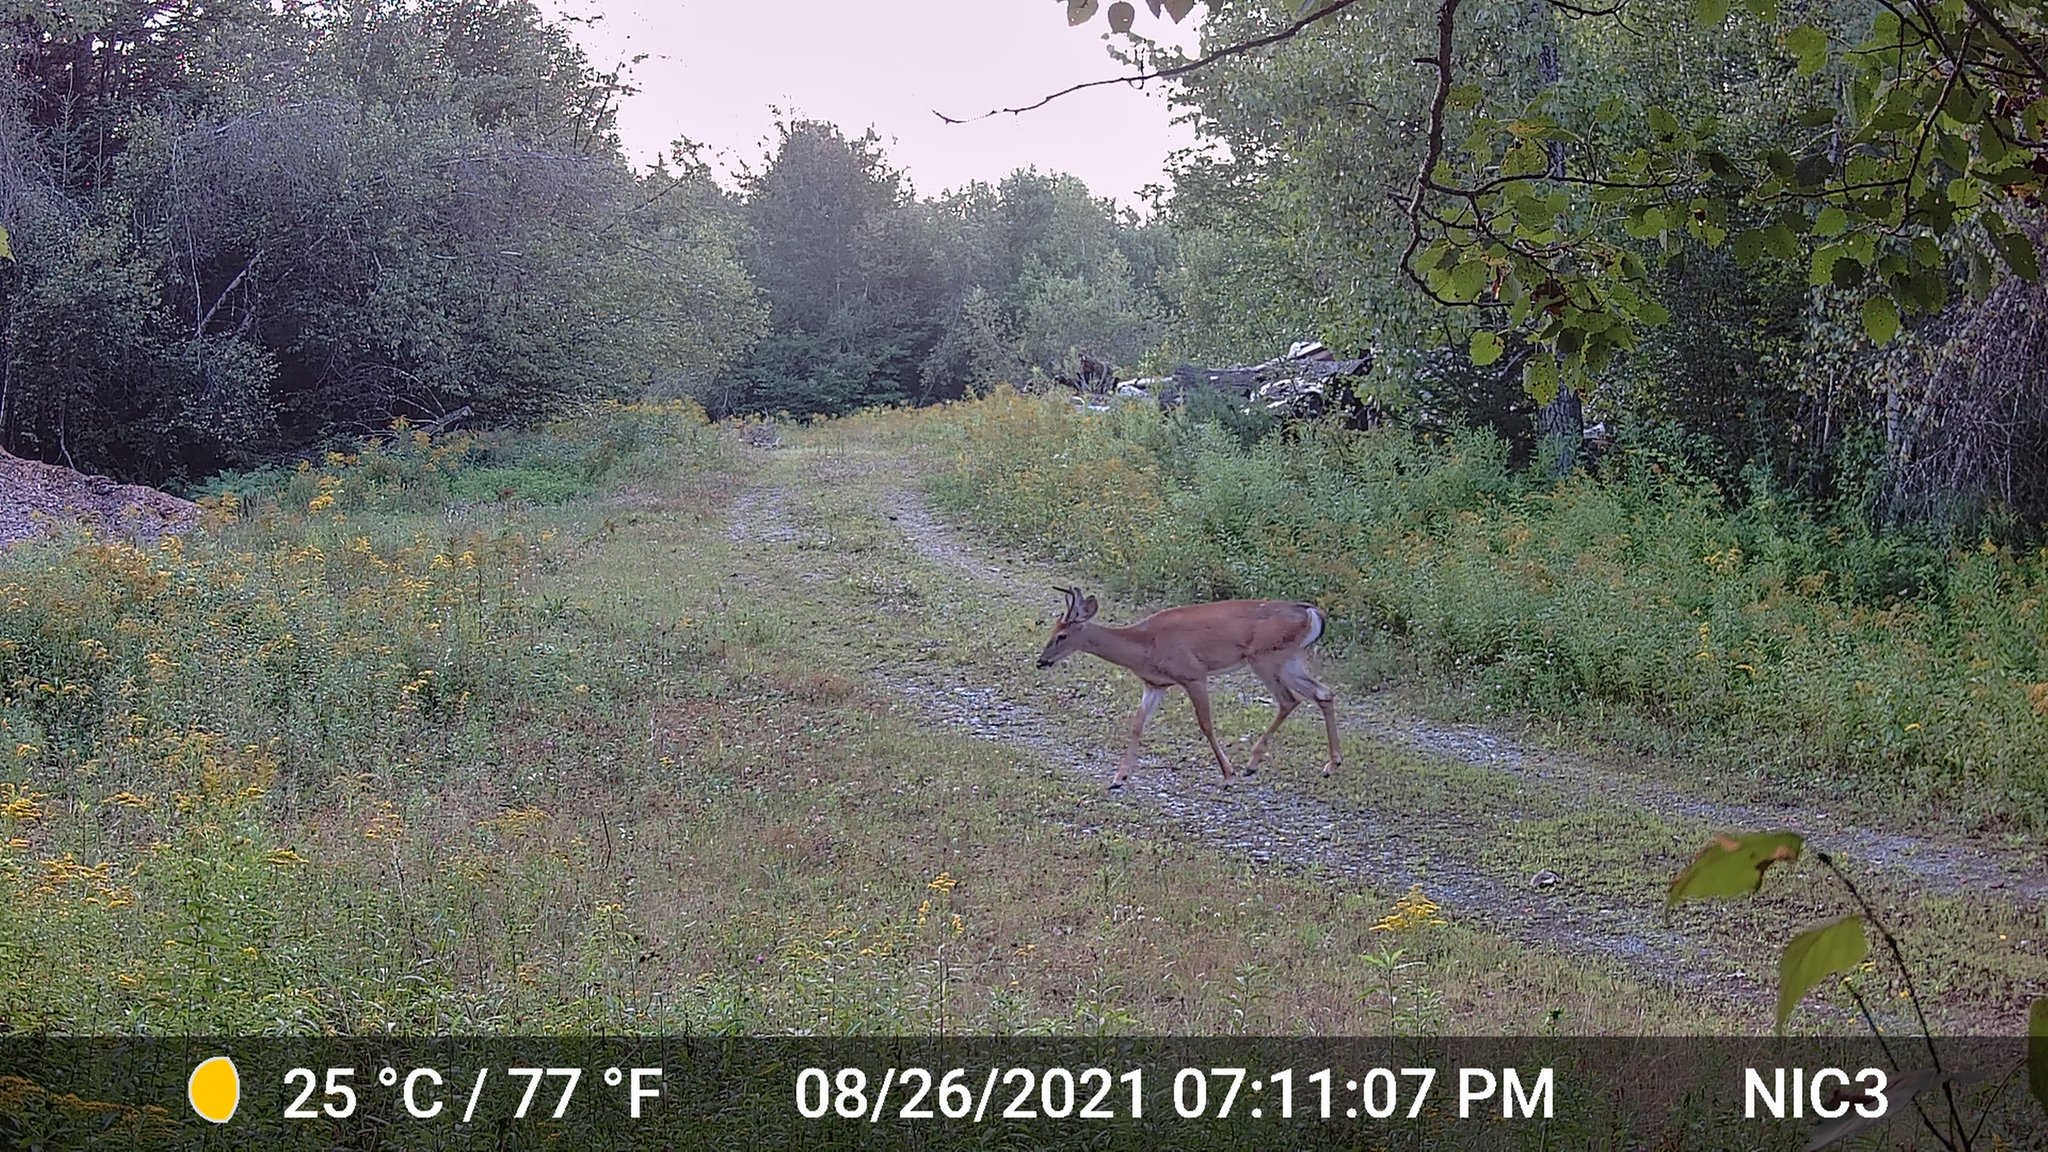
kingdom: Animalia
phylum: Chordata
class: Mammalia
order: Artiodactyla
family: Cervidae
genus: Odocoileus
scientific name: Odocoileus virginianus
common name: White-tailed deer
